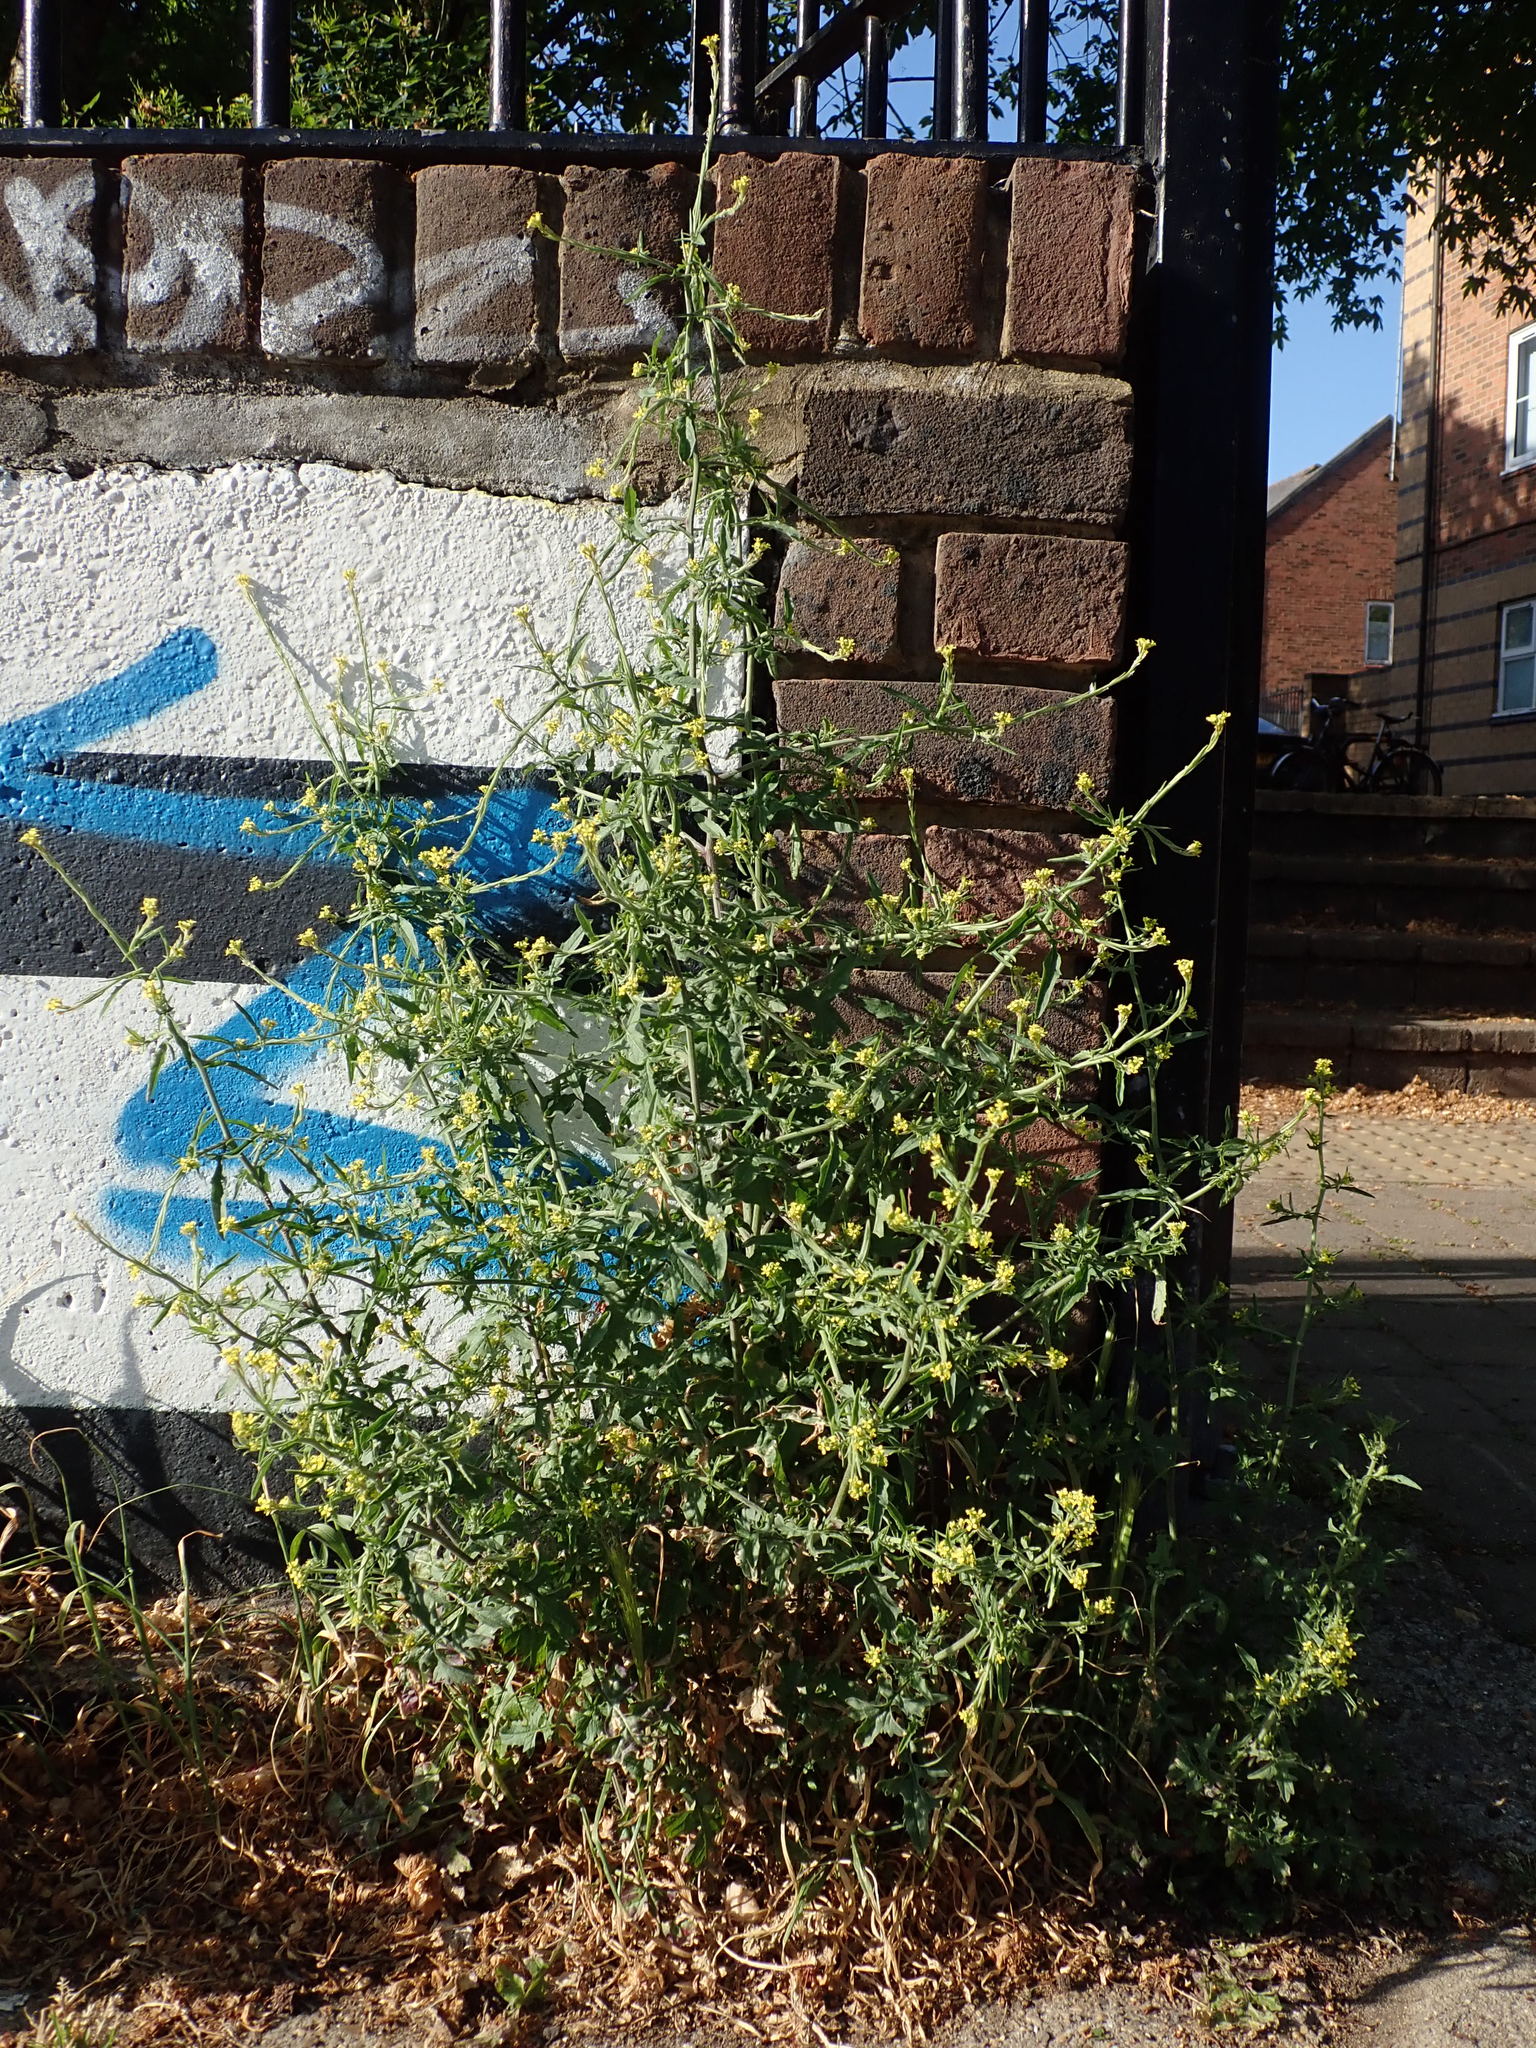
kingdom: Plantae
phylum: Tracheophyta
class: Magnoliopsida
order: Brassicales
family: Brassicaceae
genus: Sisymbrium
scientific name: Sisymbrium officinale
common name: Hedge mustard
